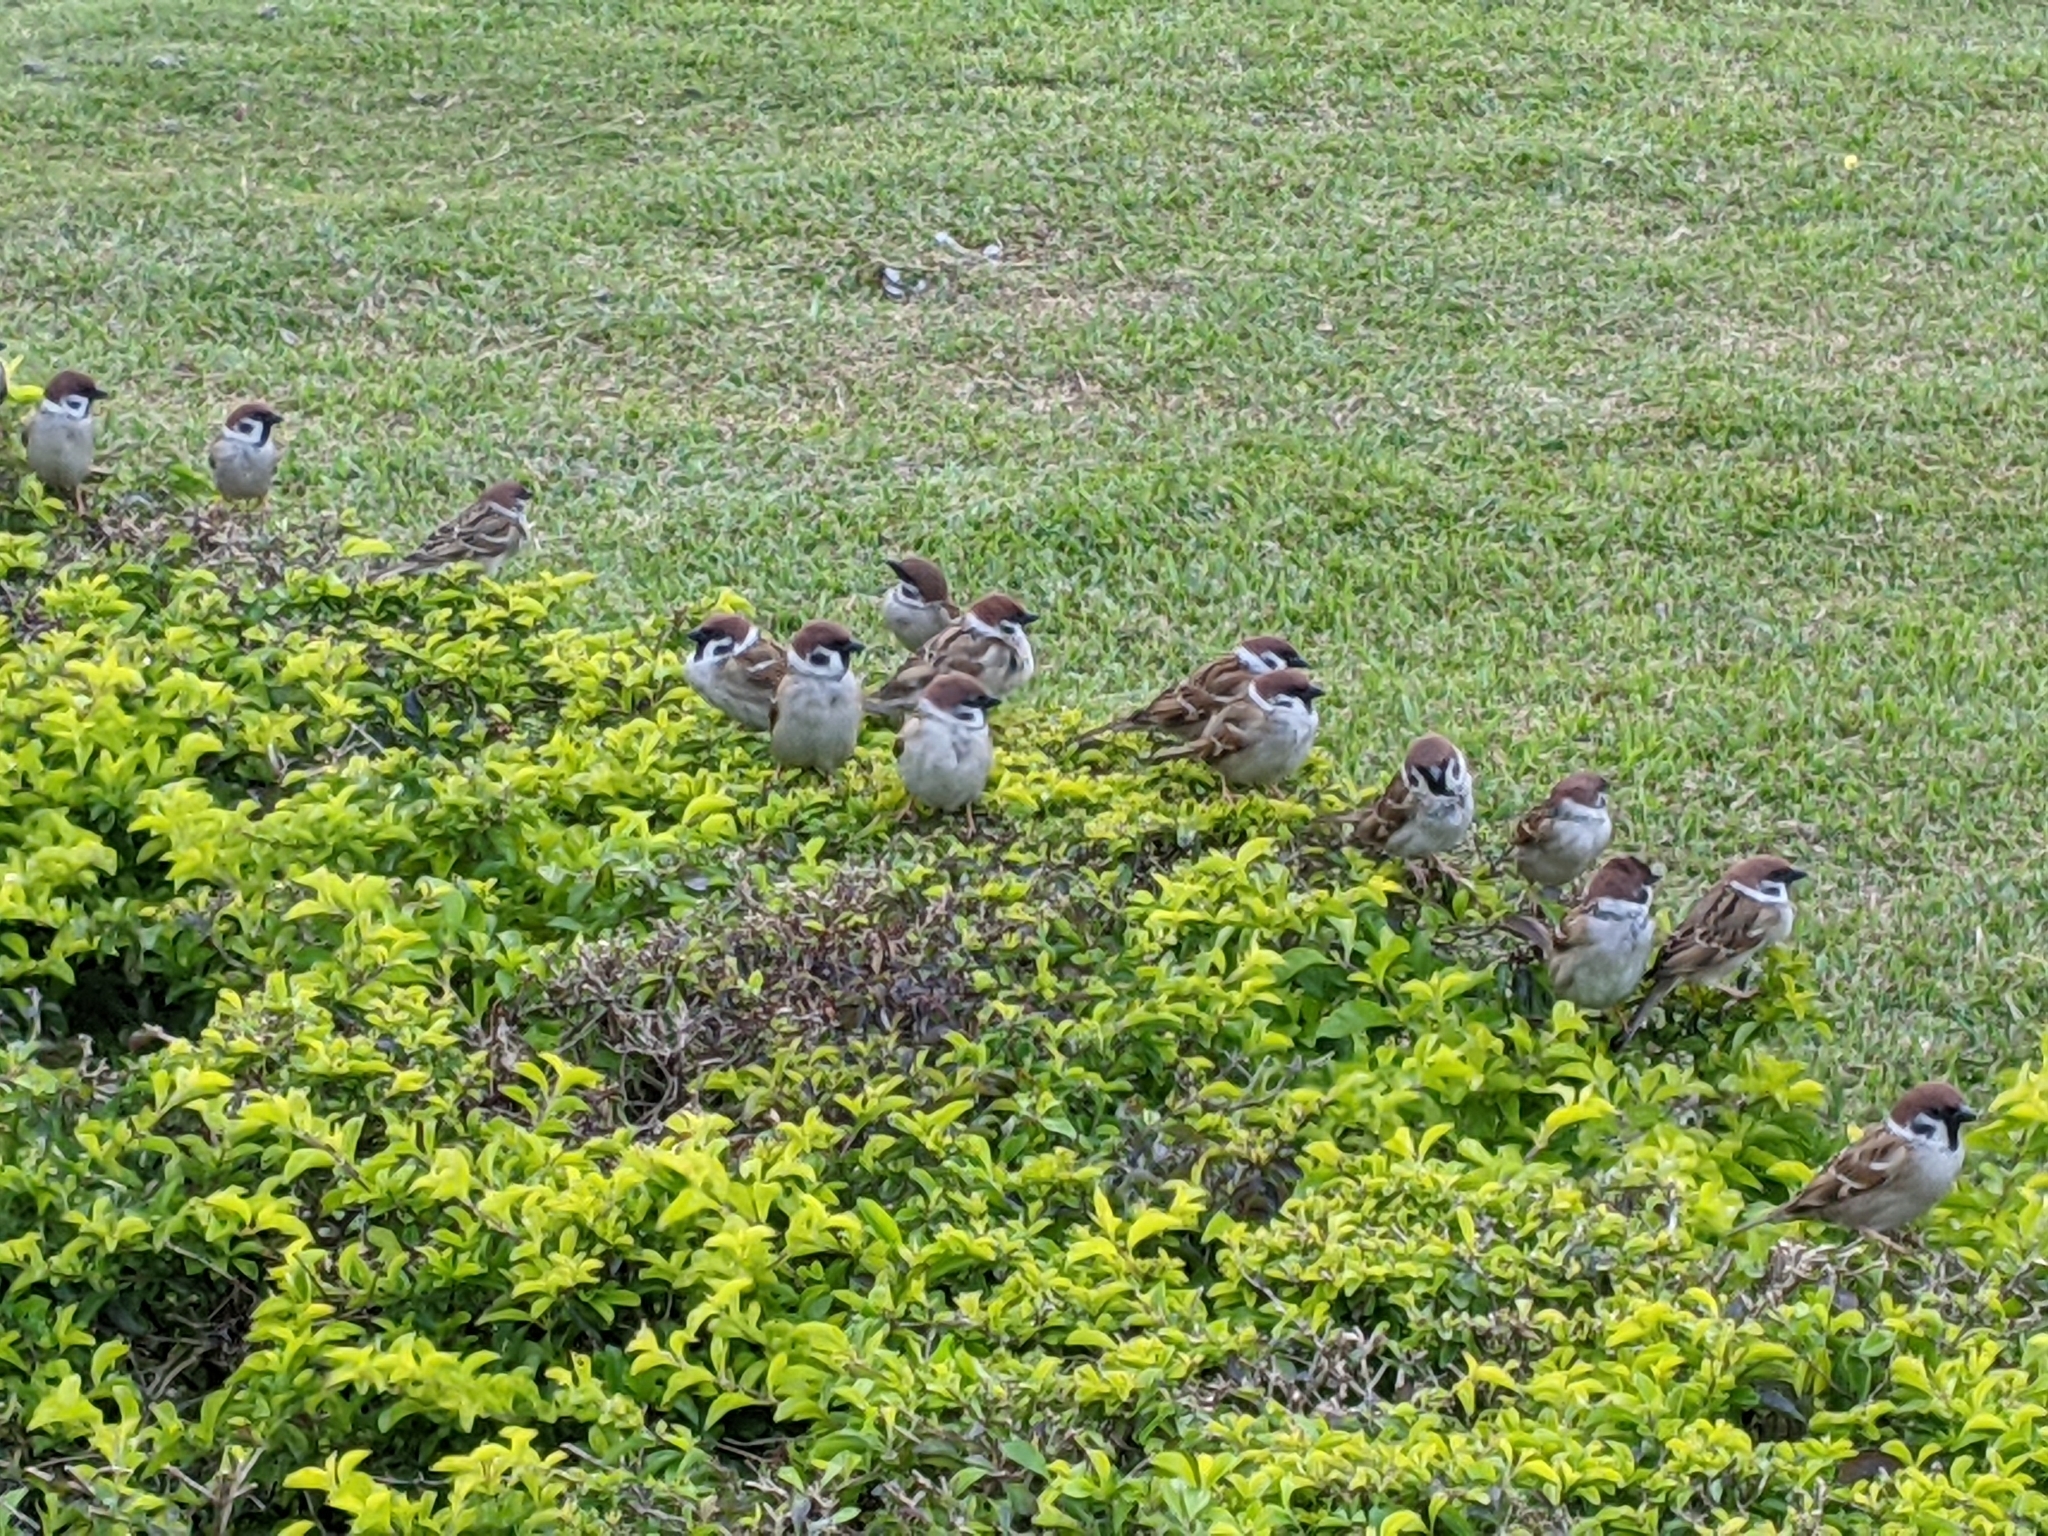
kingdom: Animalia
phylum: Chordata
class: Aves
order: Passeriformes
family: Passeridae
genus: Passer
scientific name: Passer montanus
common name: Eurasian tree sparrow
